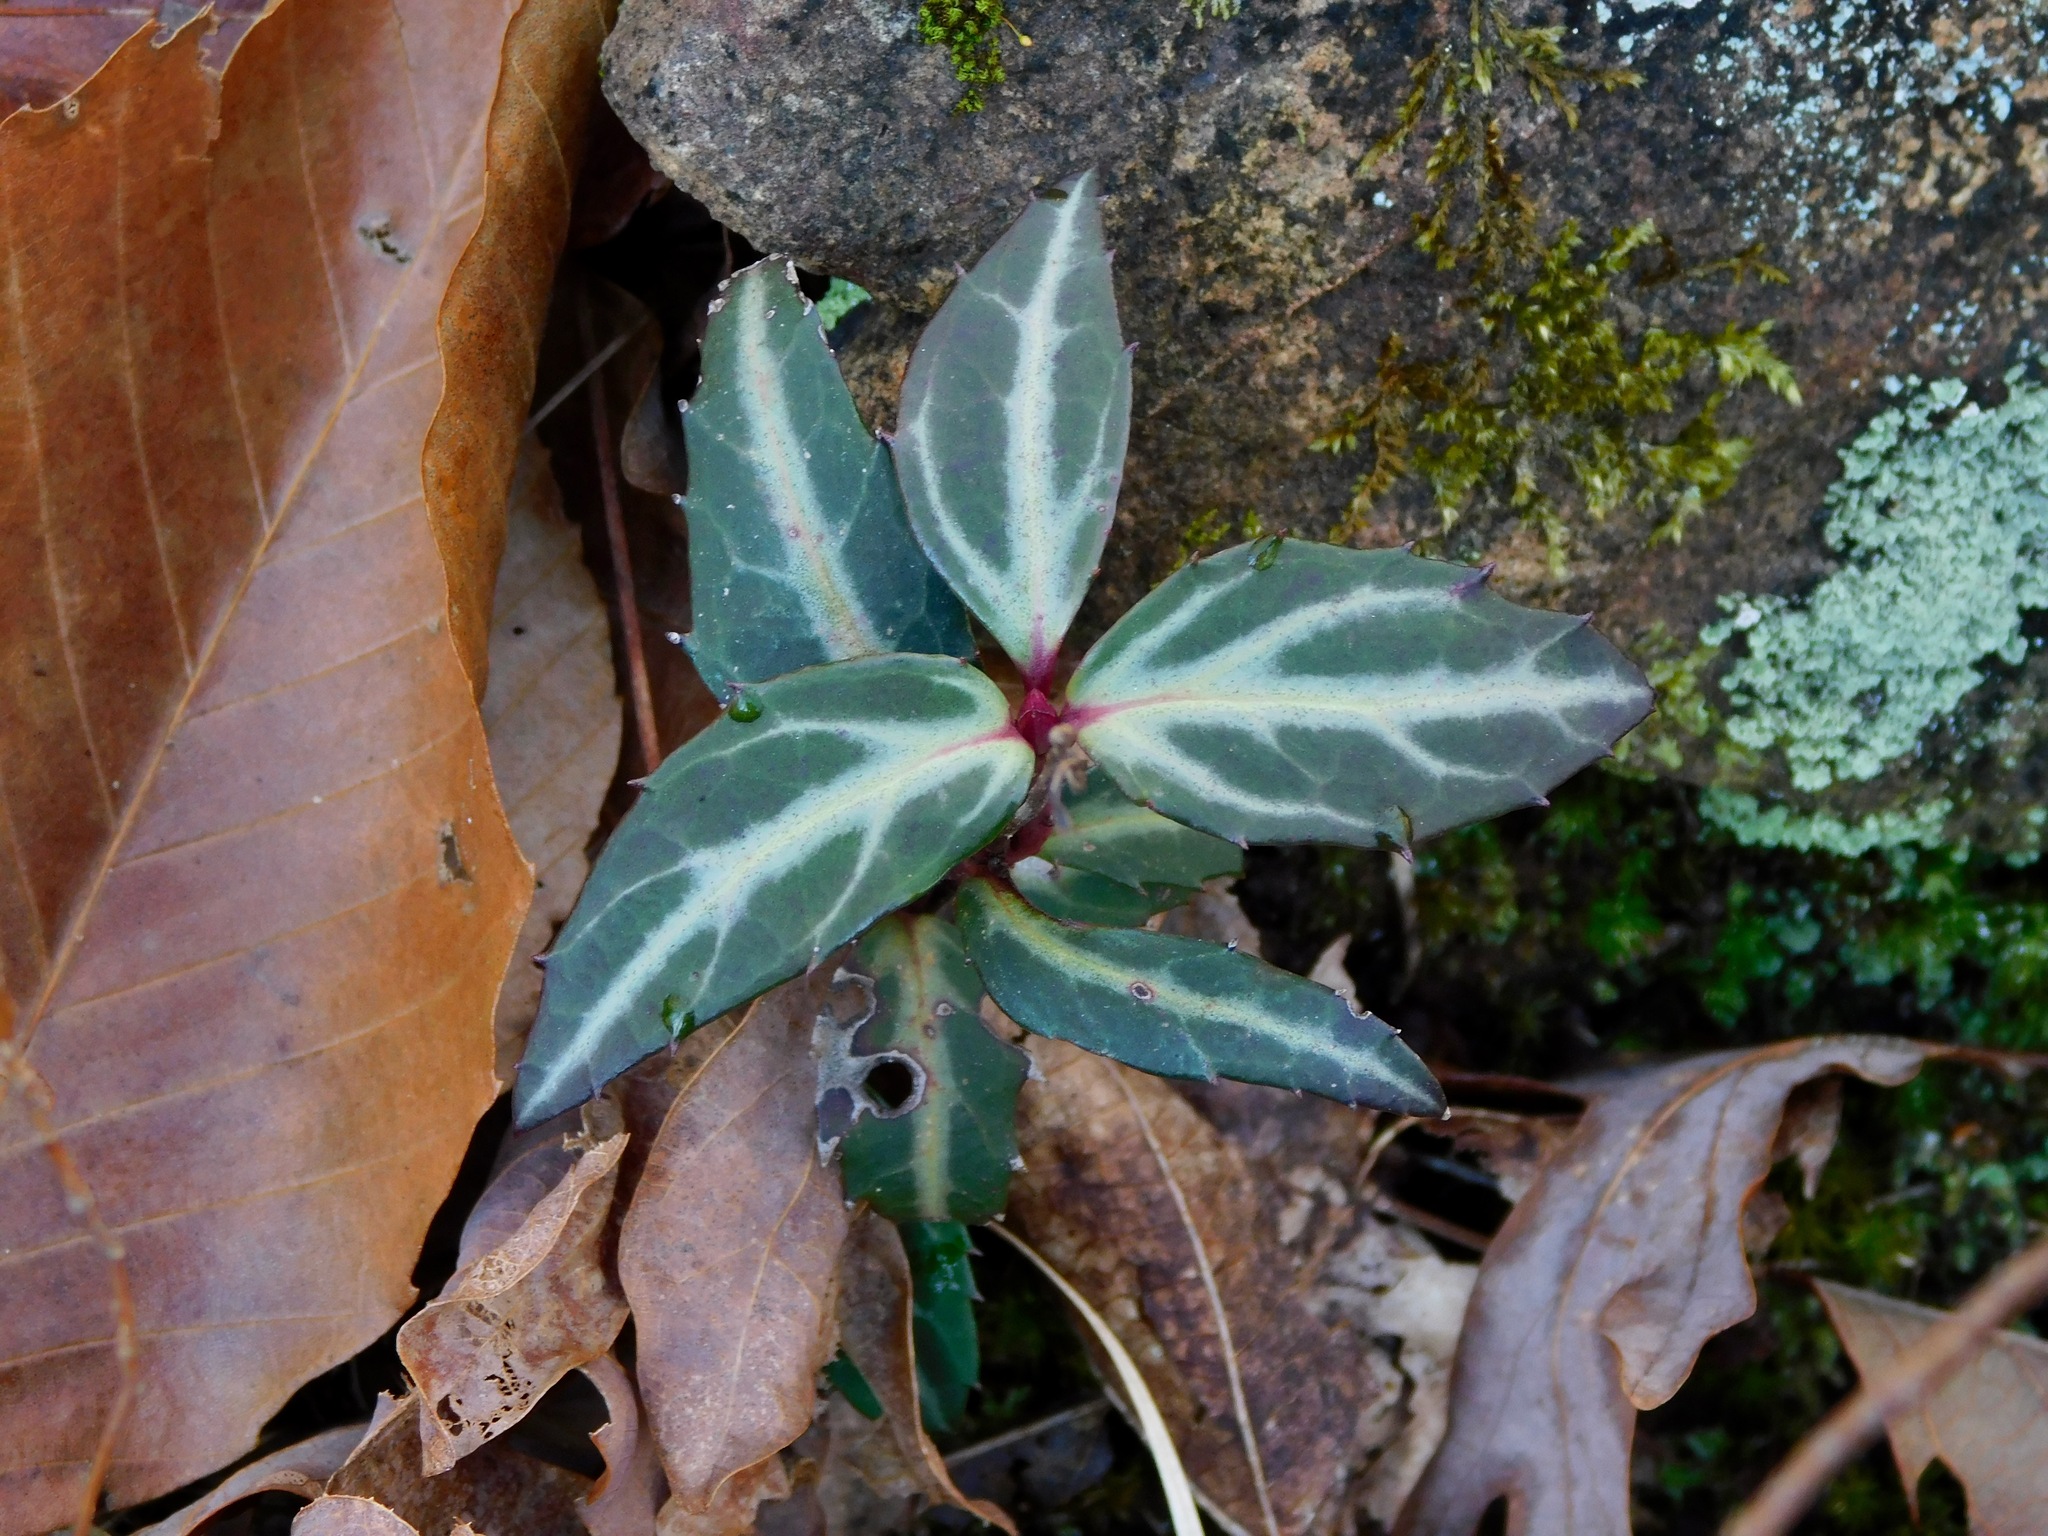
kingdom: Plantae
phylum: Tracheophyta
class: Magnoliopsida
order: Ericales
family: Ericaceae
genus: Chimaphila
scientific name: Chimaphila maculata
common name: Spotted pipsissewa
